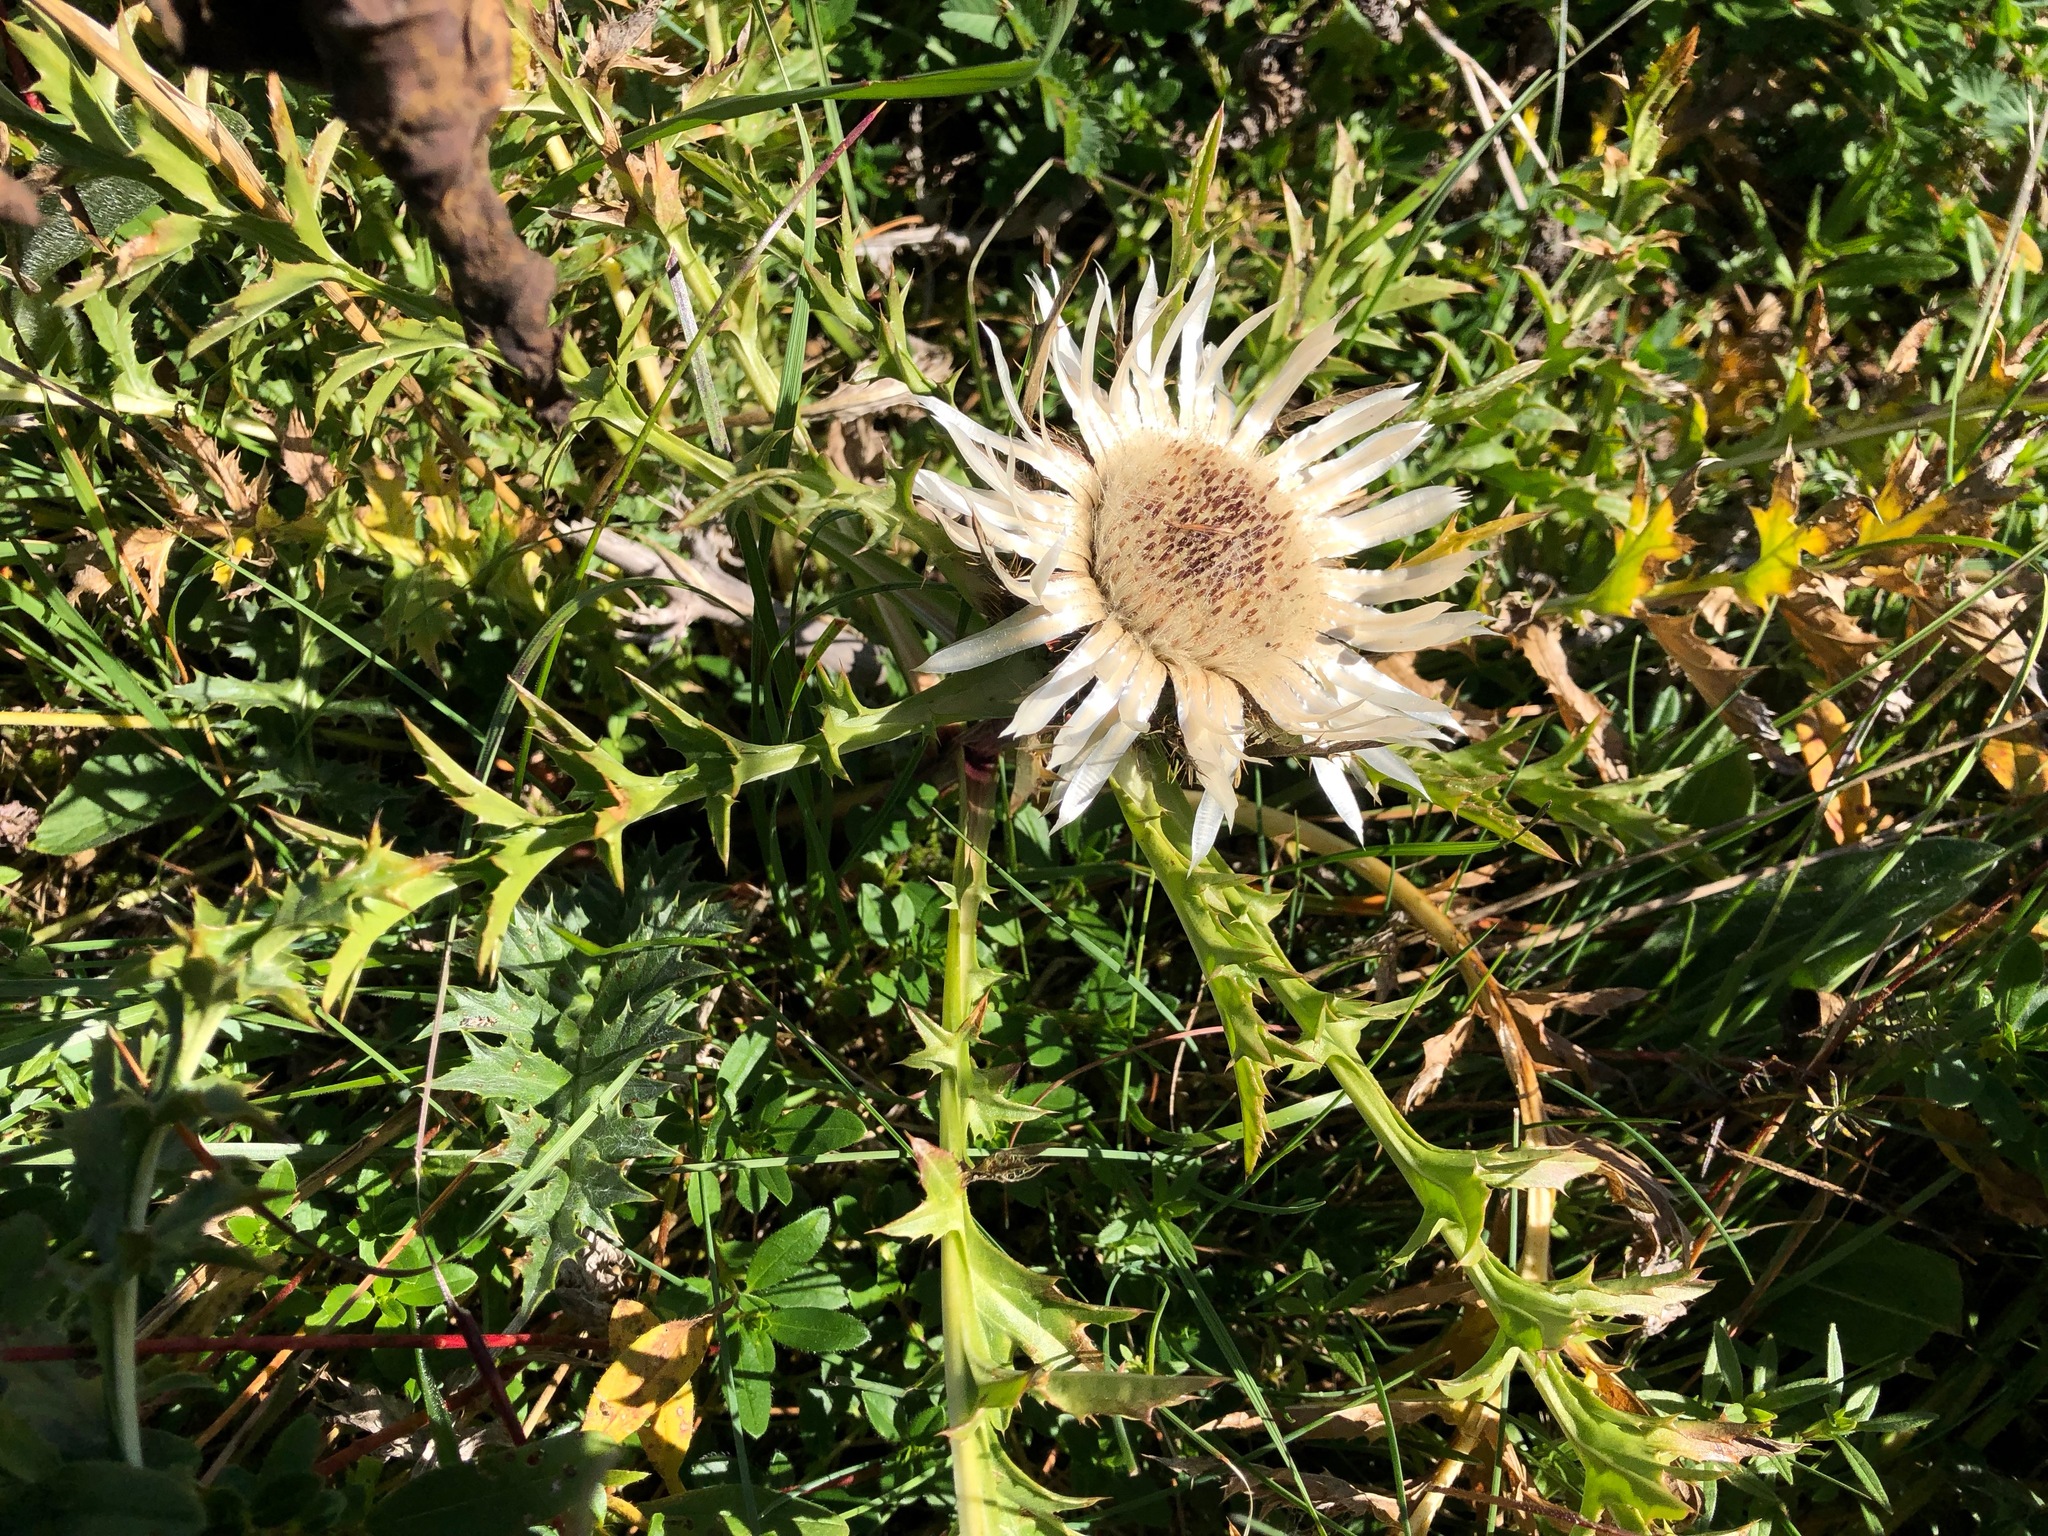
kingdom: Plantae
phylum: Tracheophyta
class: Magnoliopsida
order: Asterales
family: Asteraceae
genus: Carlina
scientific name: Carlina acaulis
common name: Stemless carline thistle
